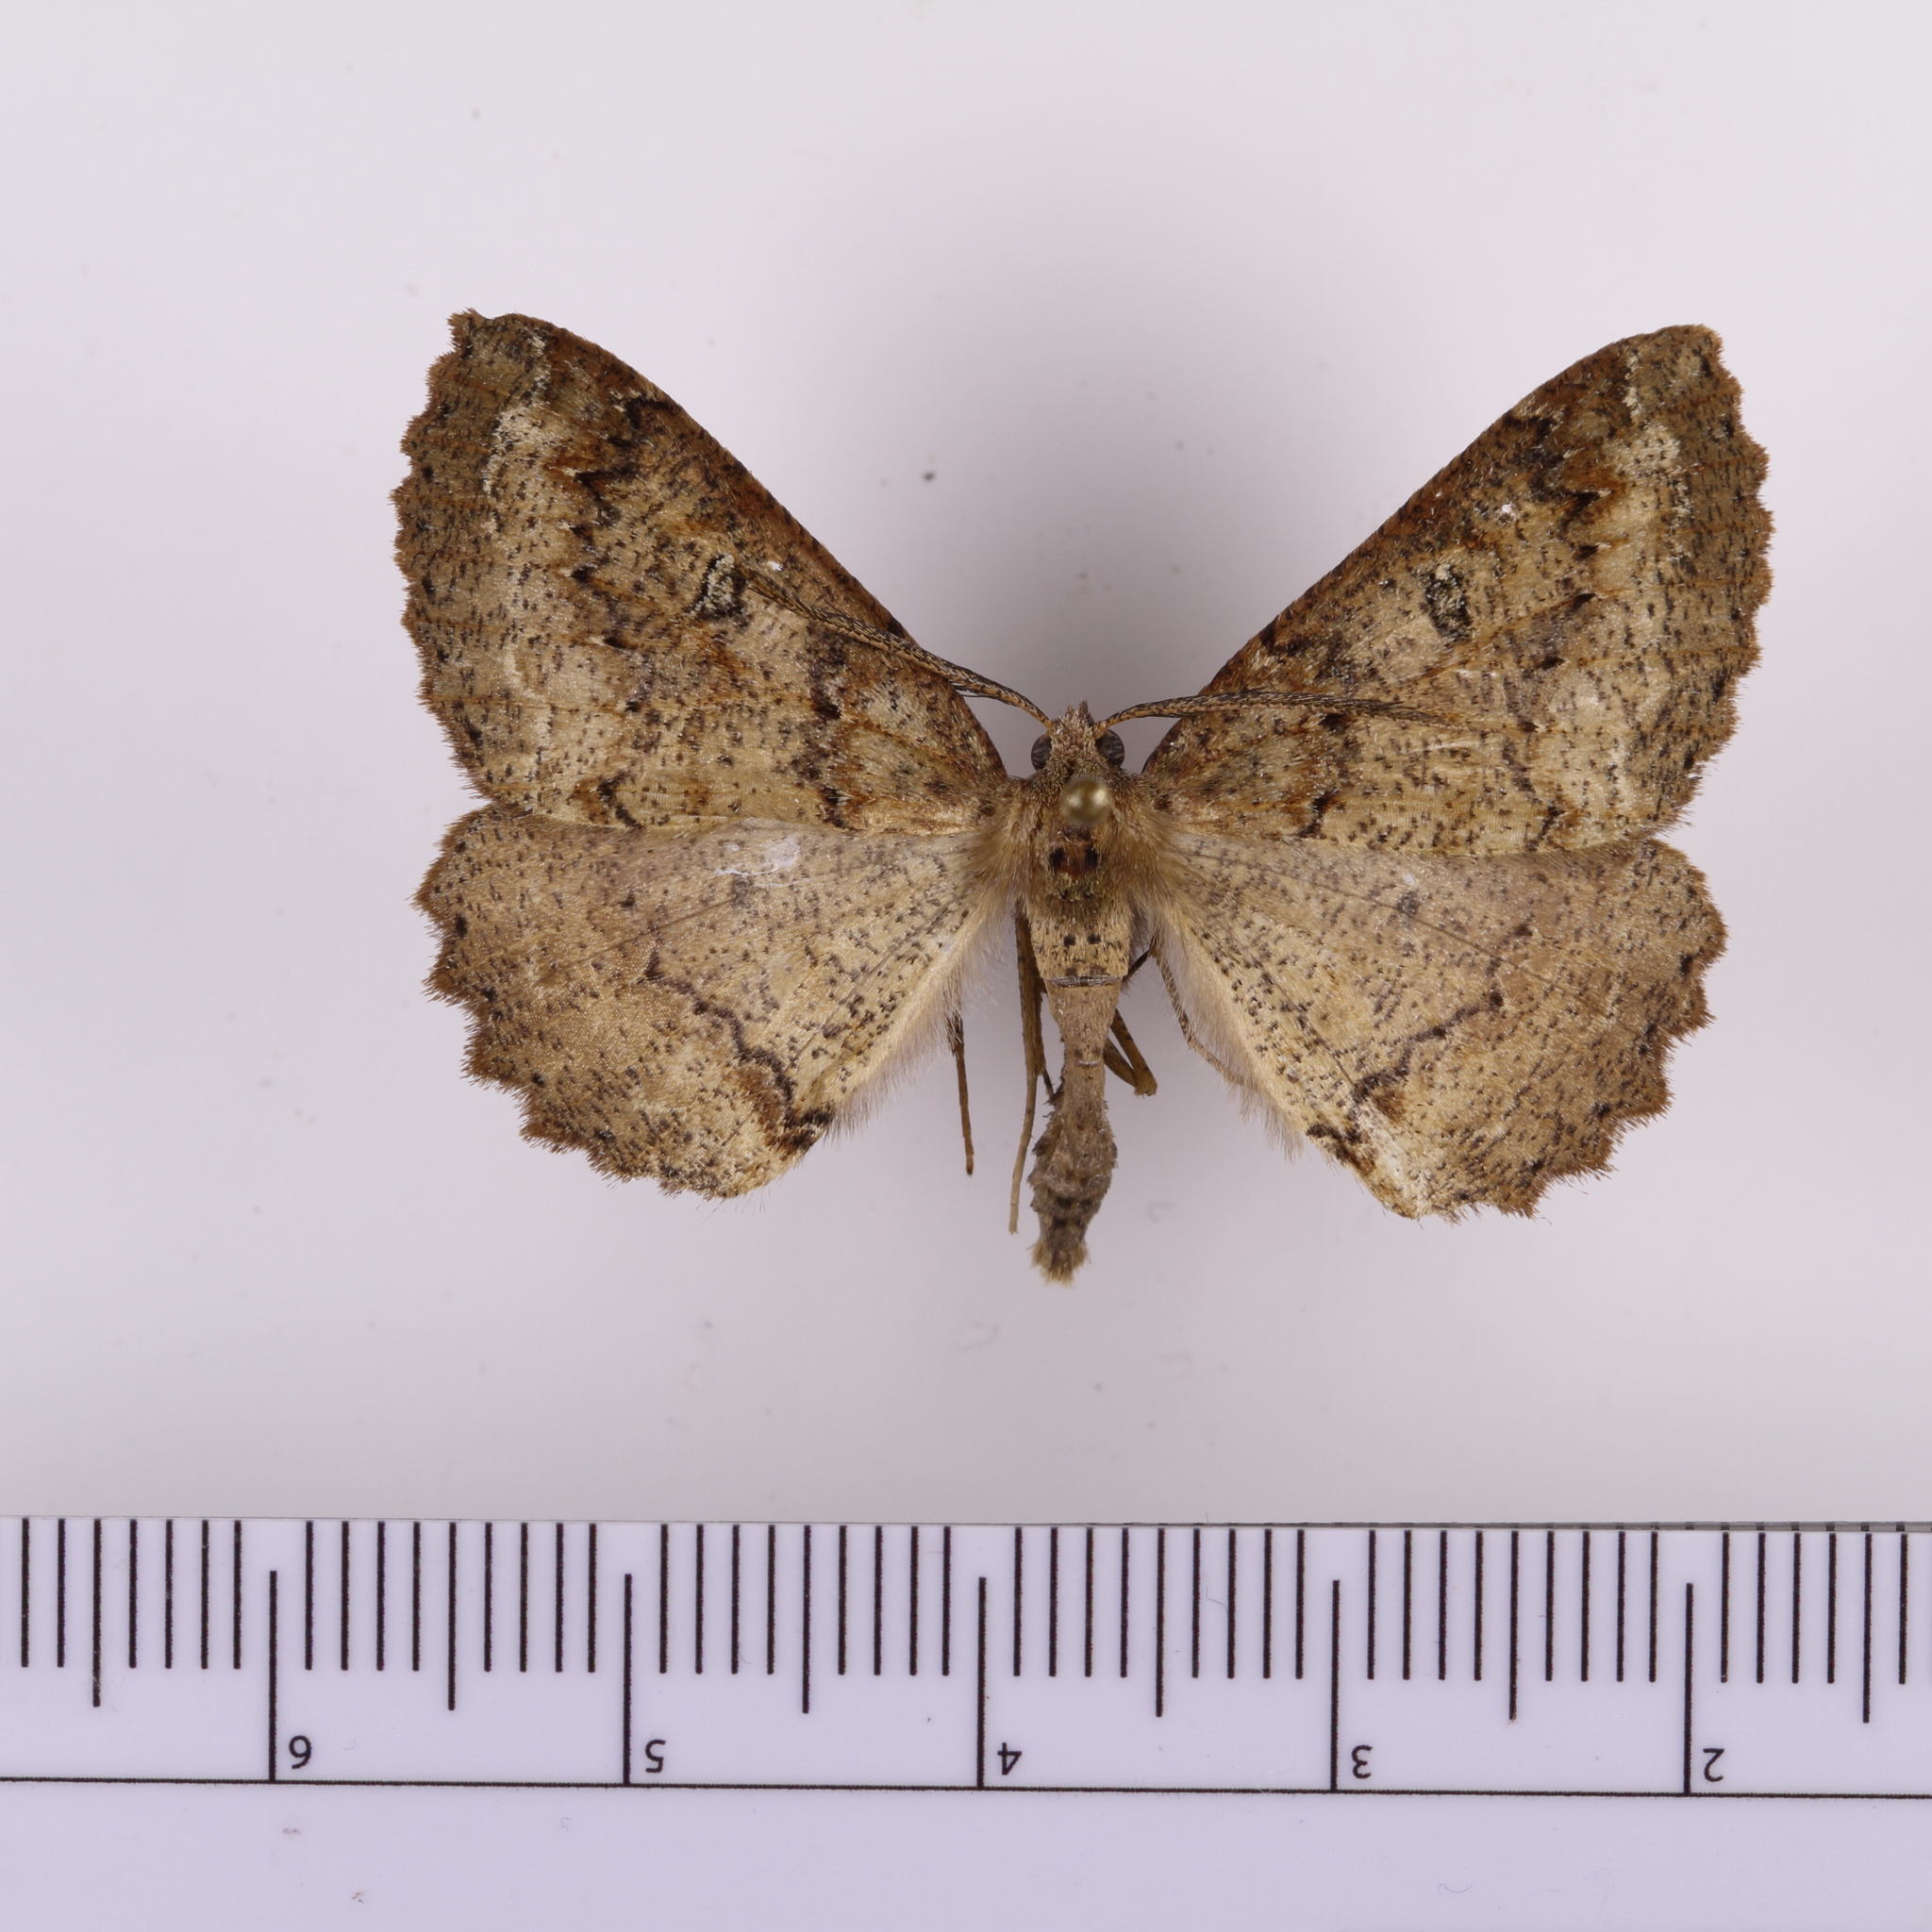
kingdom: Animalia
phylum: Arthropoda
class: Insecta
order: Lepidoptera
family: Geometridae
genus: Cleora
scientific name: Cleora scriptaria
